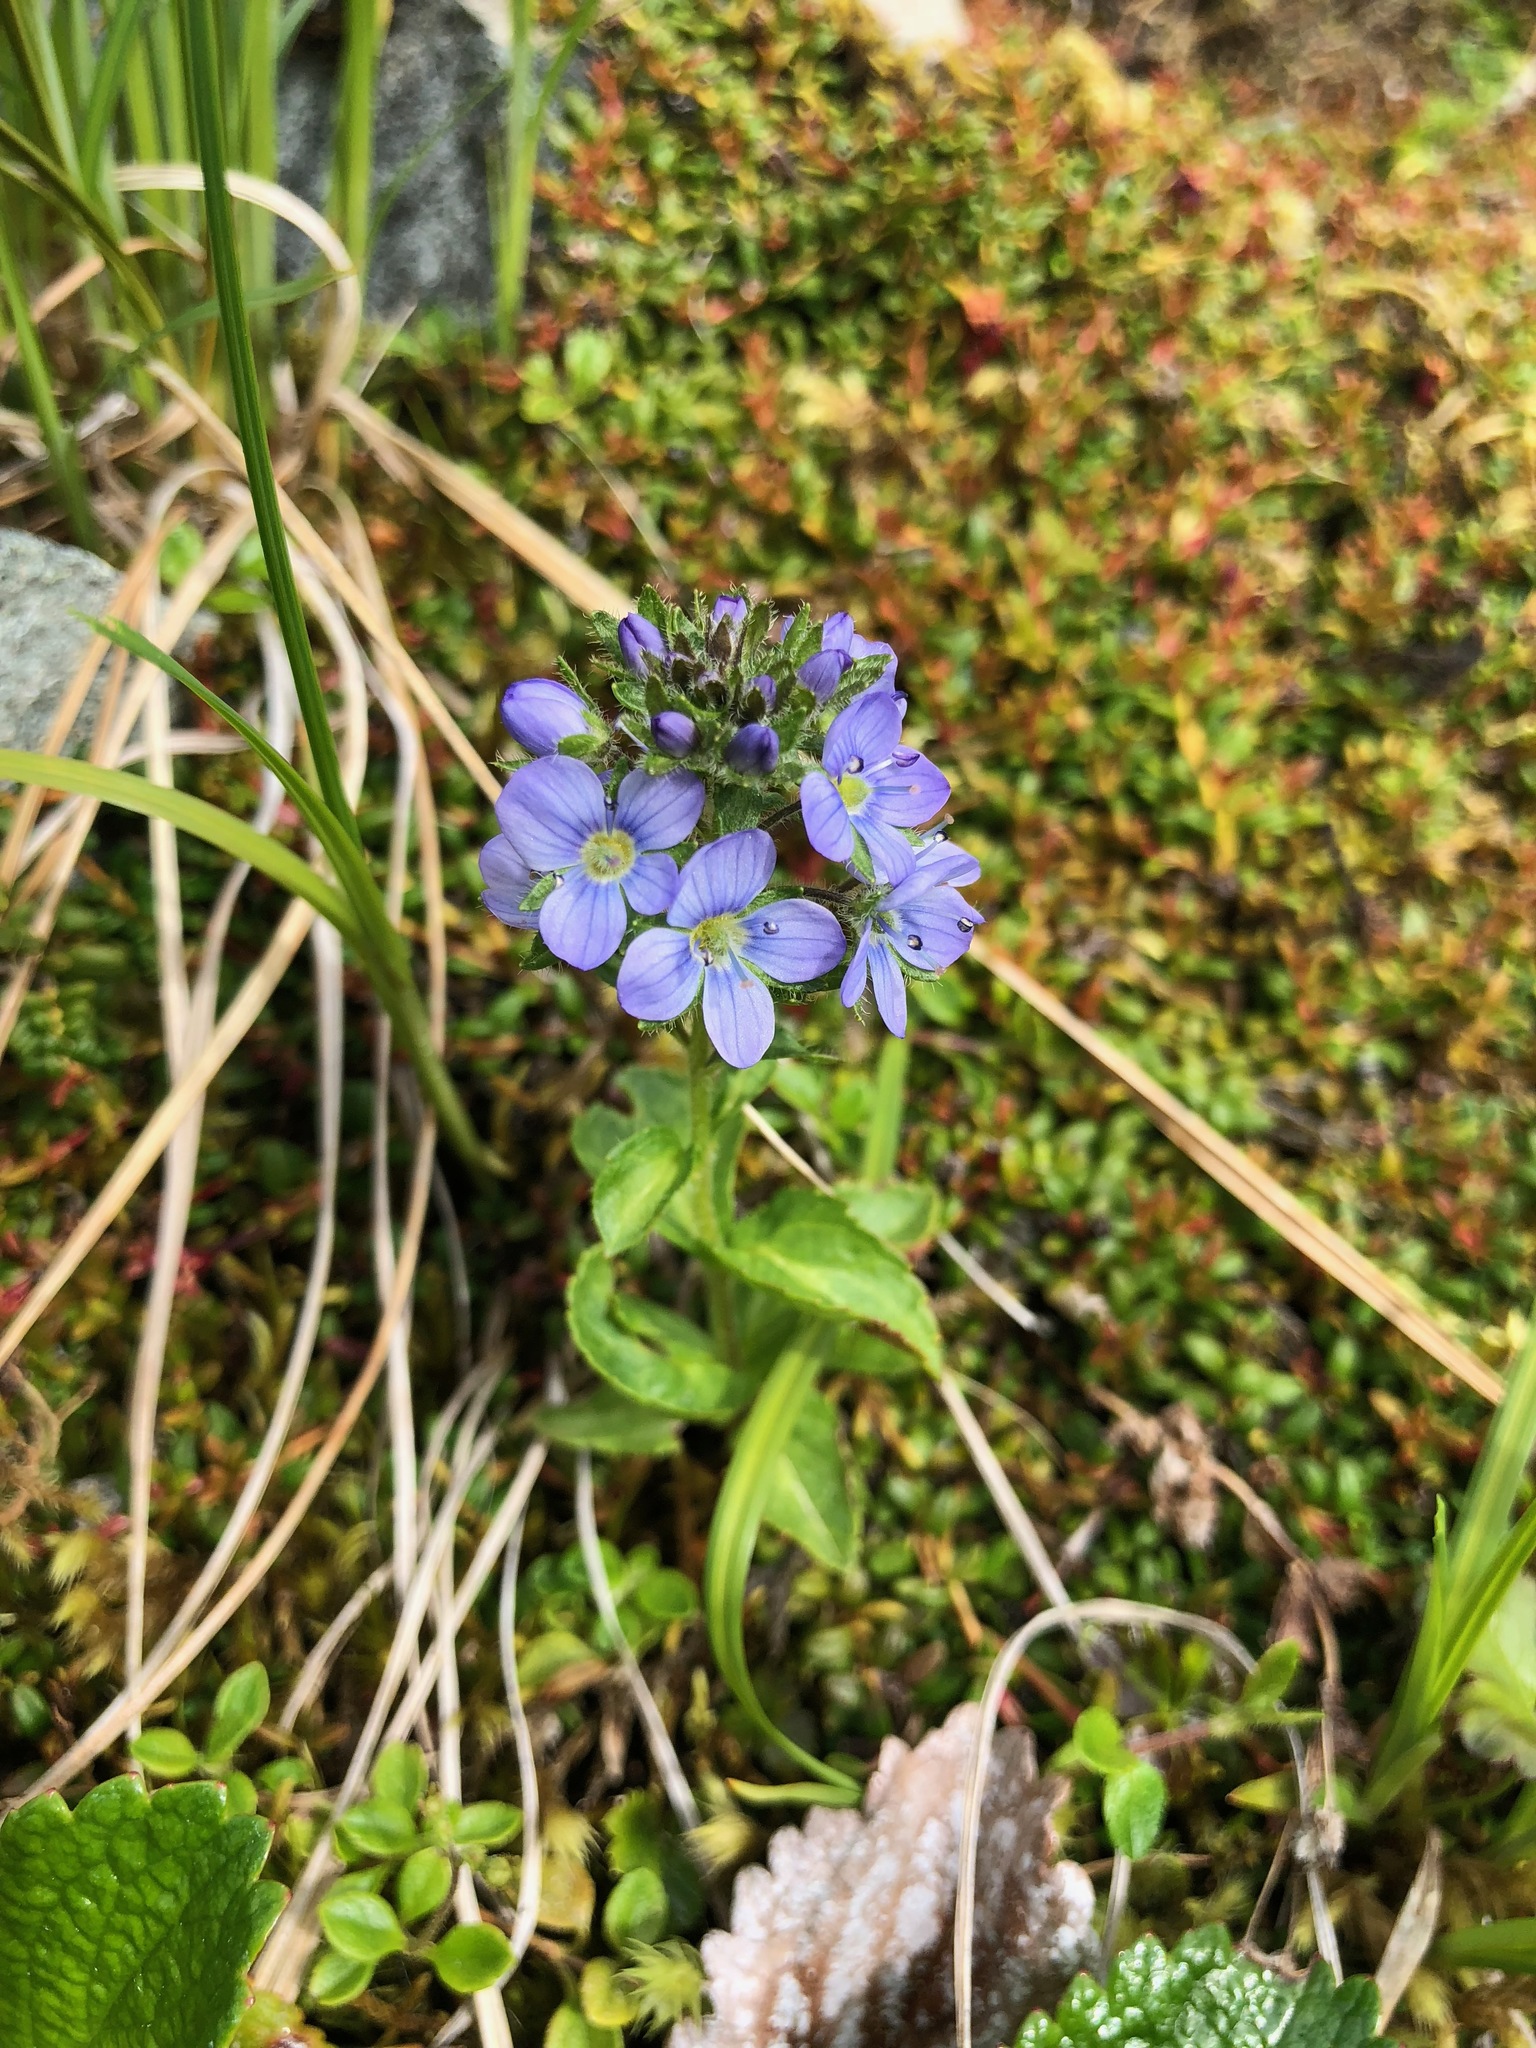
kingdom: Plantae
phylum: Tracheophyta
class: Magnoliopsida
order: Lamiales
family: Plantaginaceae
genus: Veronica
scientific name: Veronica stelleri
